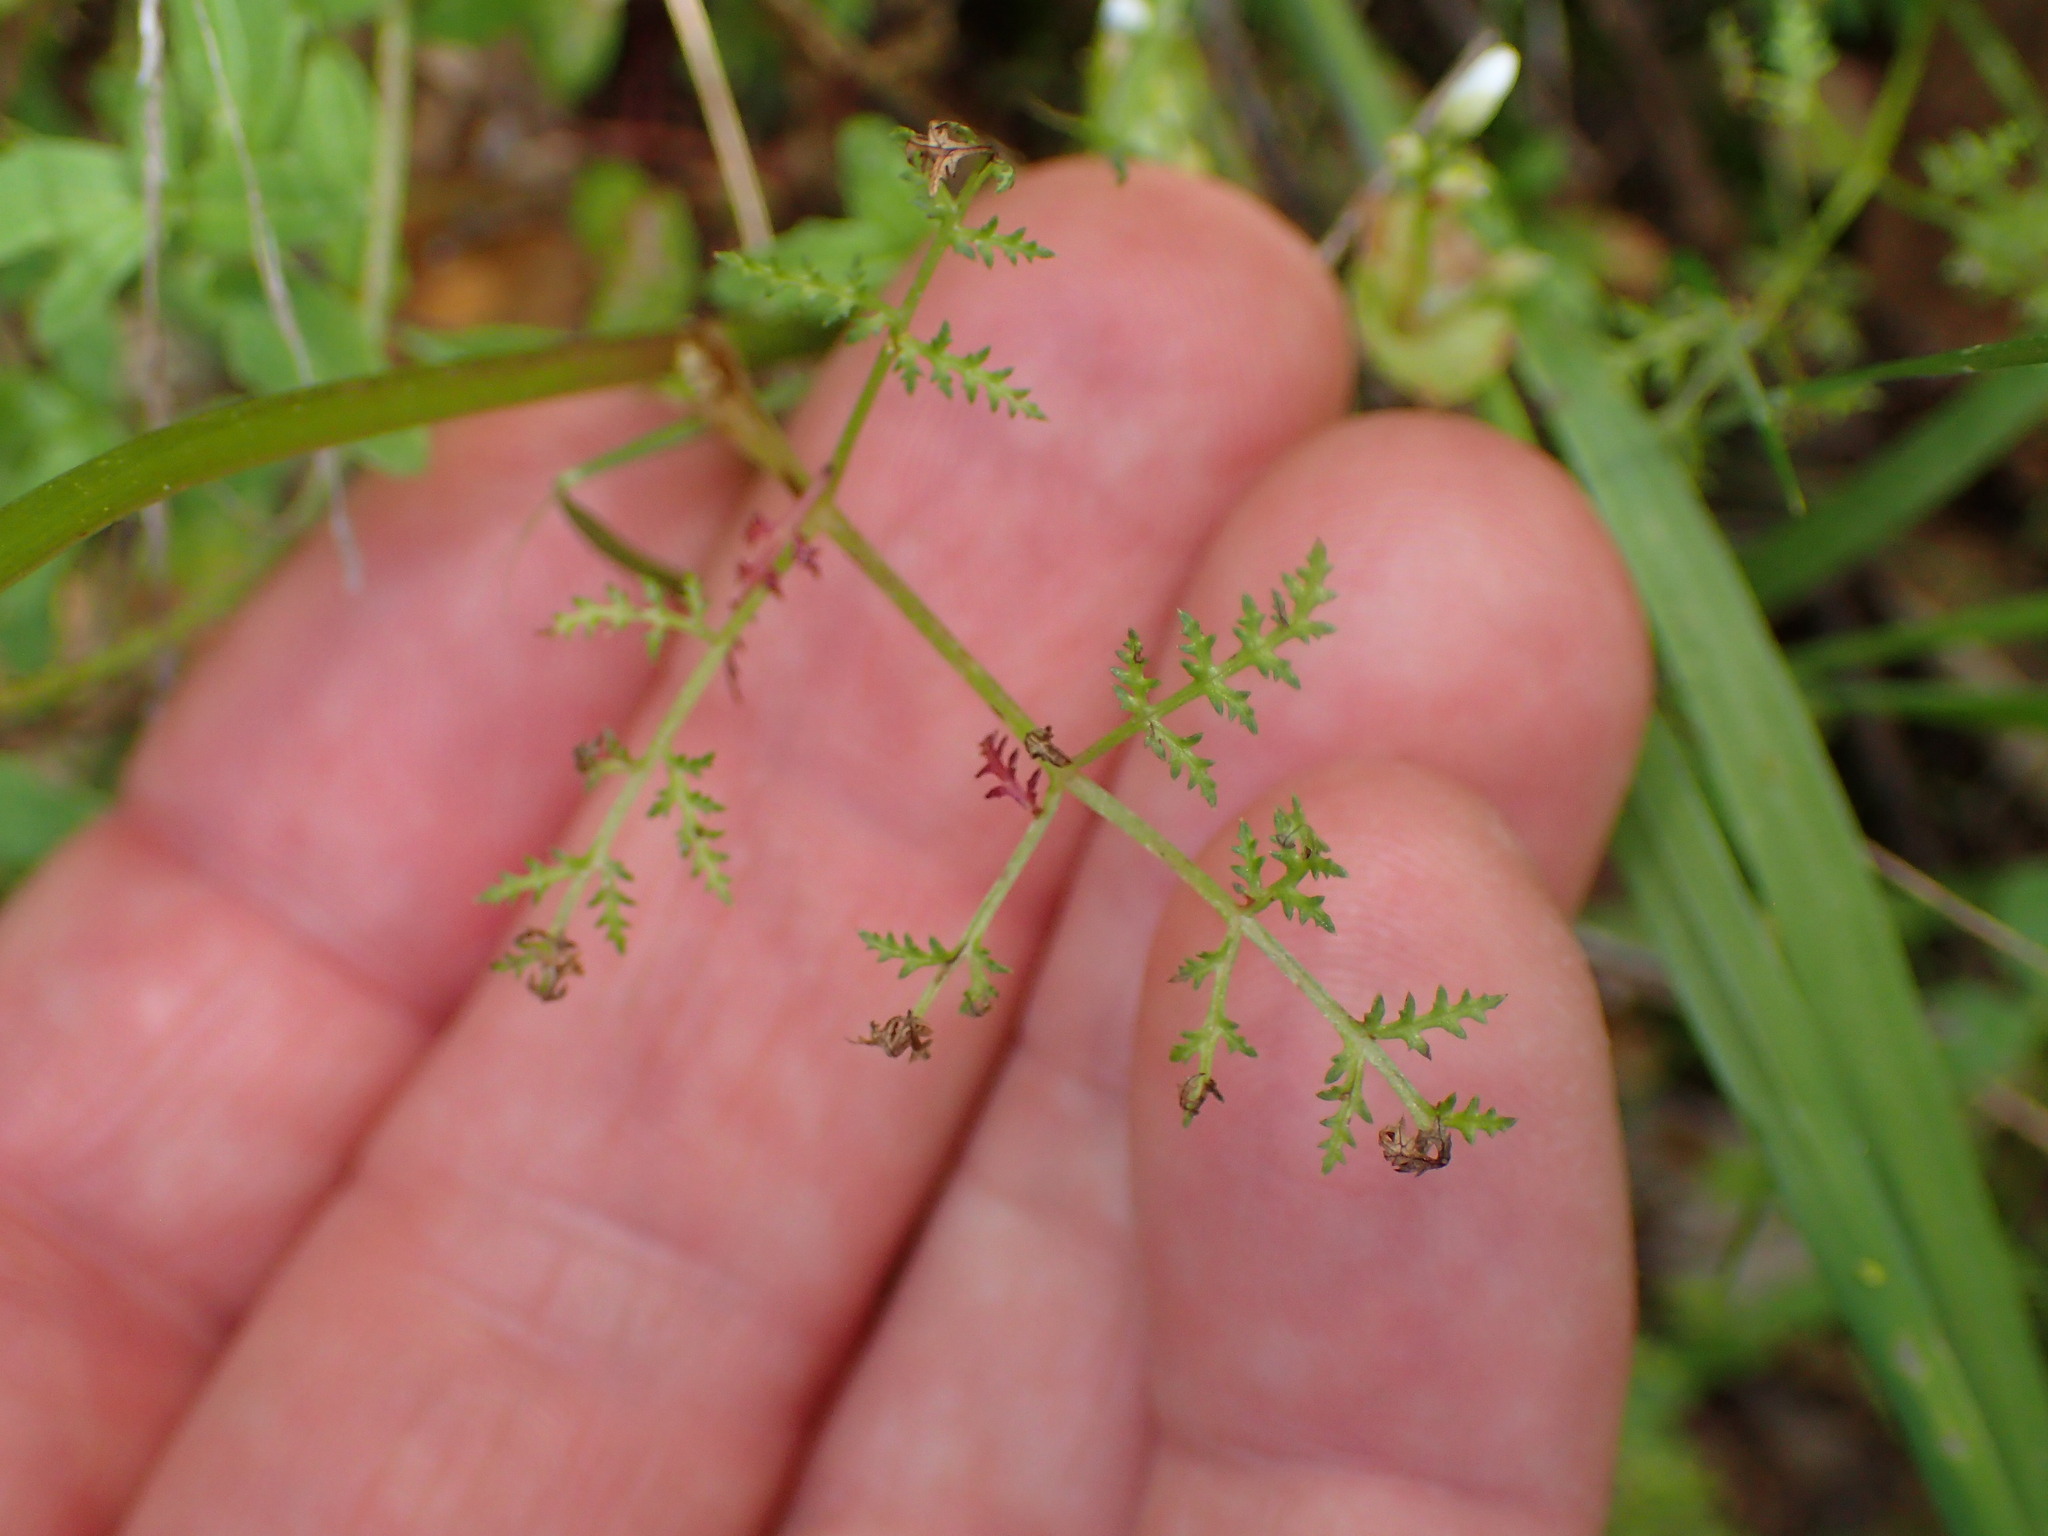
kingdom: Plantae
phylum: Tracheophyta
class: Magnoliopsida
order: Apiales
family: Apiaceae
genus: Sanicula
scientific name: Sanicula tuberosa
